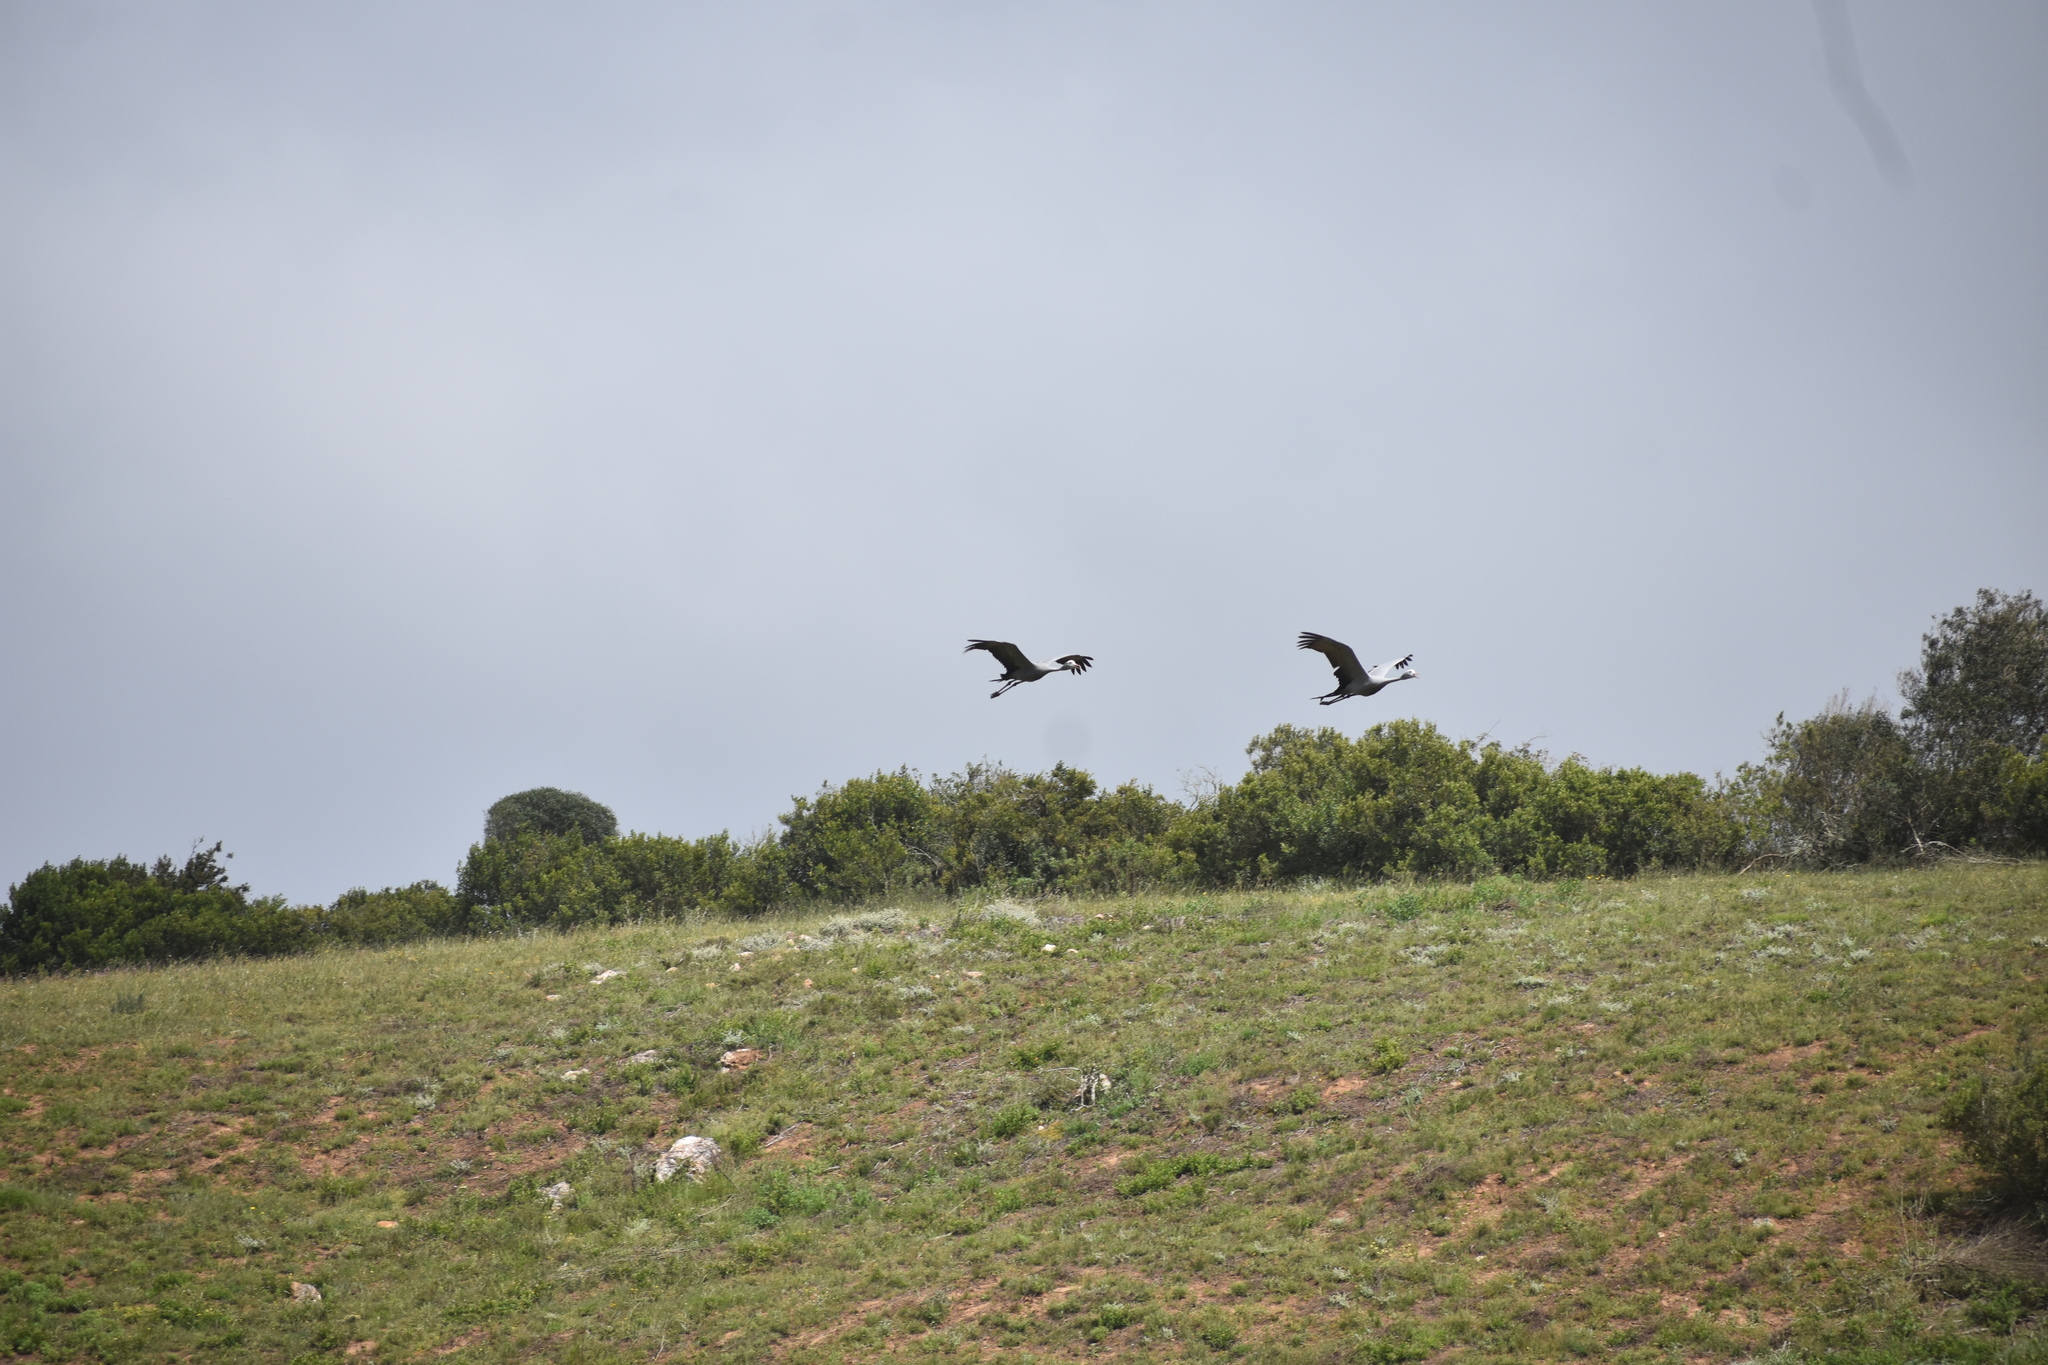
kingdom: Animalia
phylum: Chordata
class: Aves
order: Gruiformes
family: Gruidae
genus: Anthropoides
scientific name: Anthropoides paradiseus
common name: Blue crane
